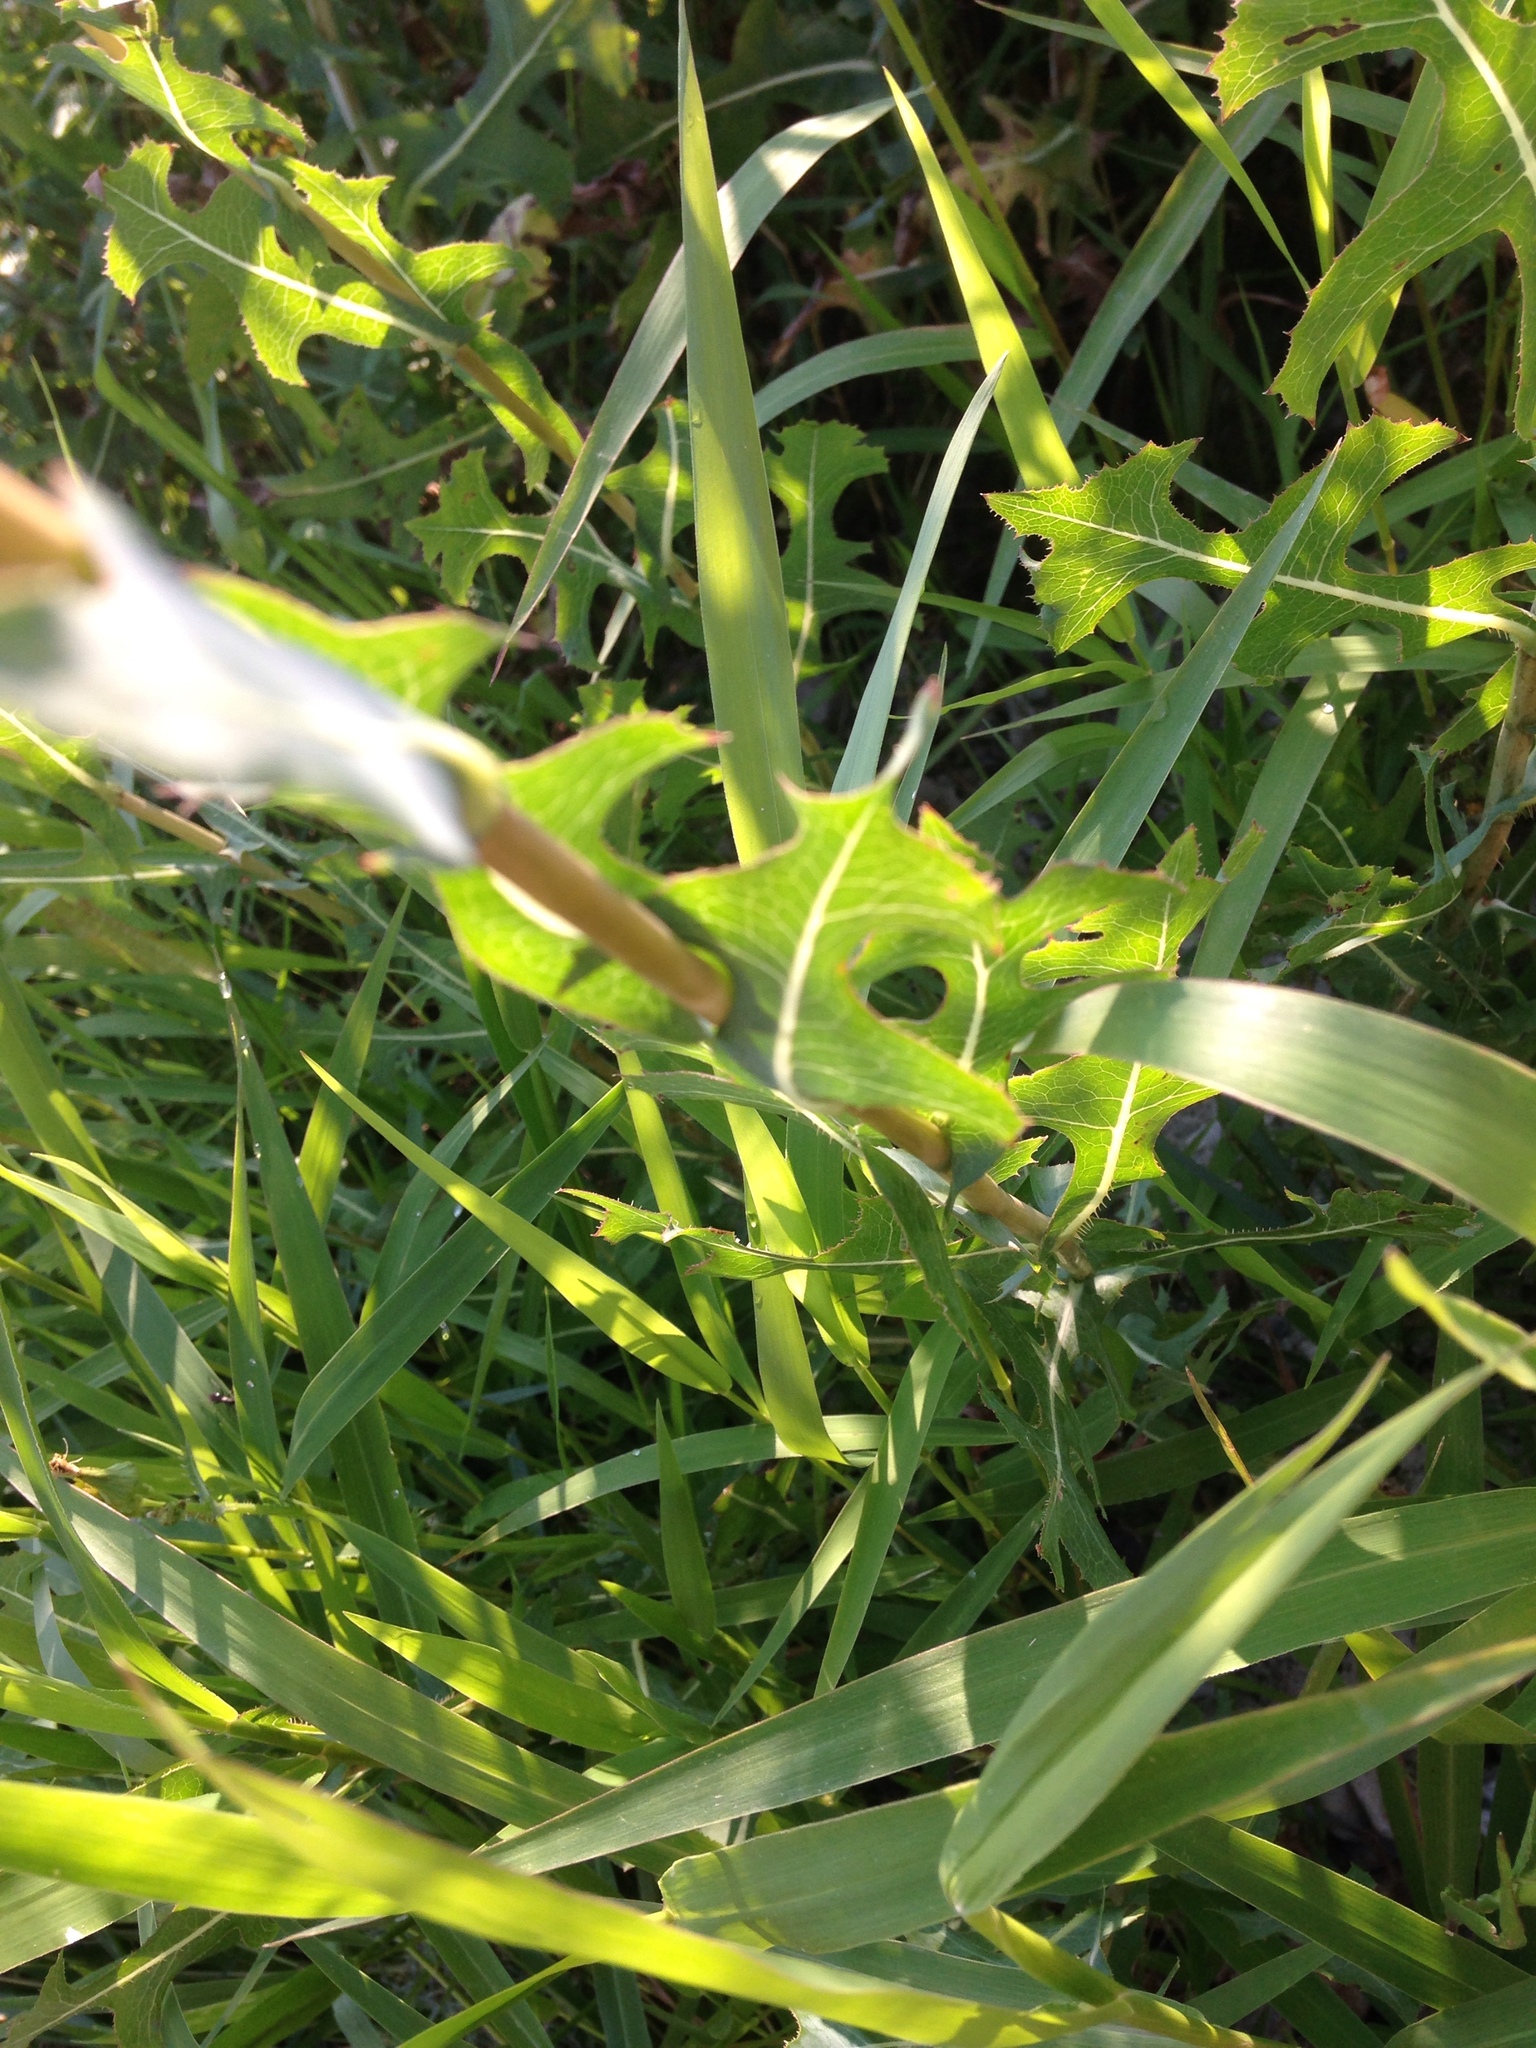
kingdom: Plantae
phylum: Tracheophyta
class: Magnoliopsida
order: Asterales
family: Asteraceae
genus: Lactuca
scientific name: Lactuca serriola
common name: Prickly lettuce
